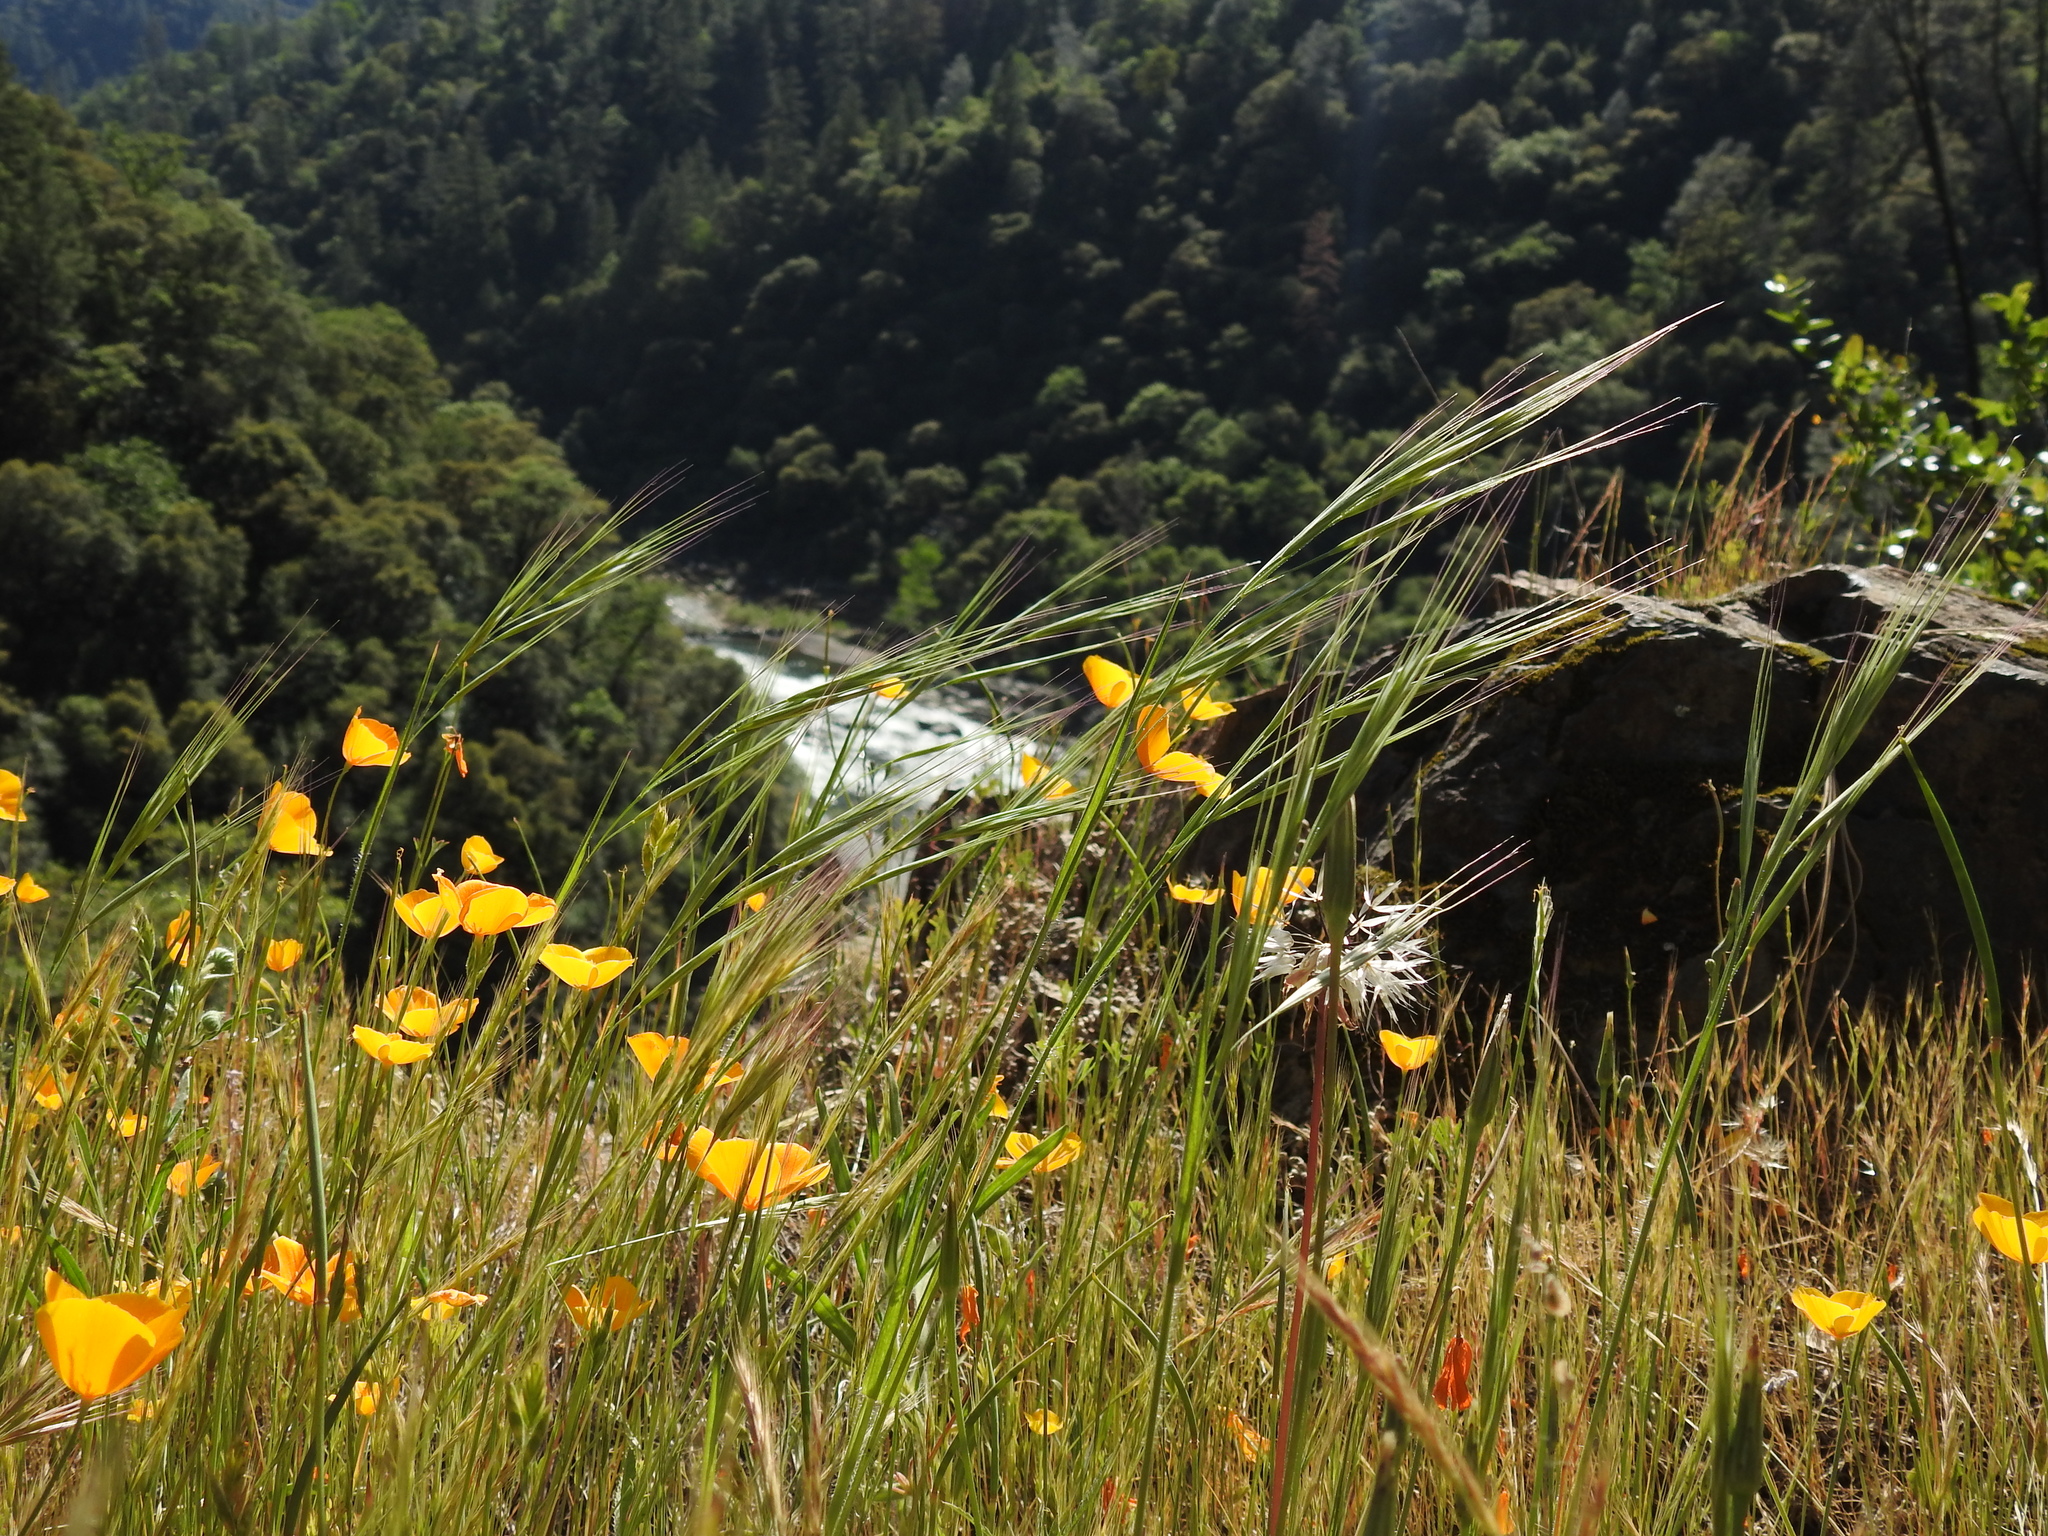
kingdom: Plantae
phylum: Tracheophyta
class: Magnoliopsida
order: Ranunculales
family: Papaveraceae
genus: Eschscholzia
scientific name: Eschscholzia caespitosa
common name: Tufted california-poppy
